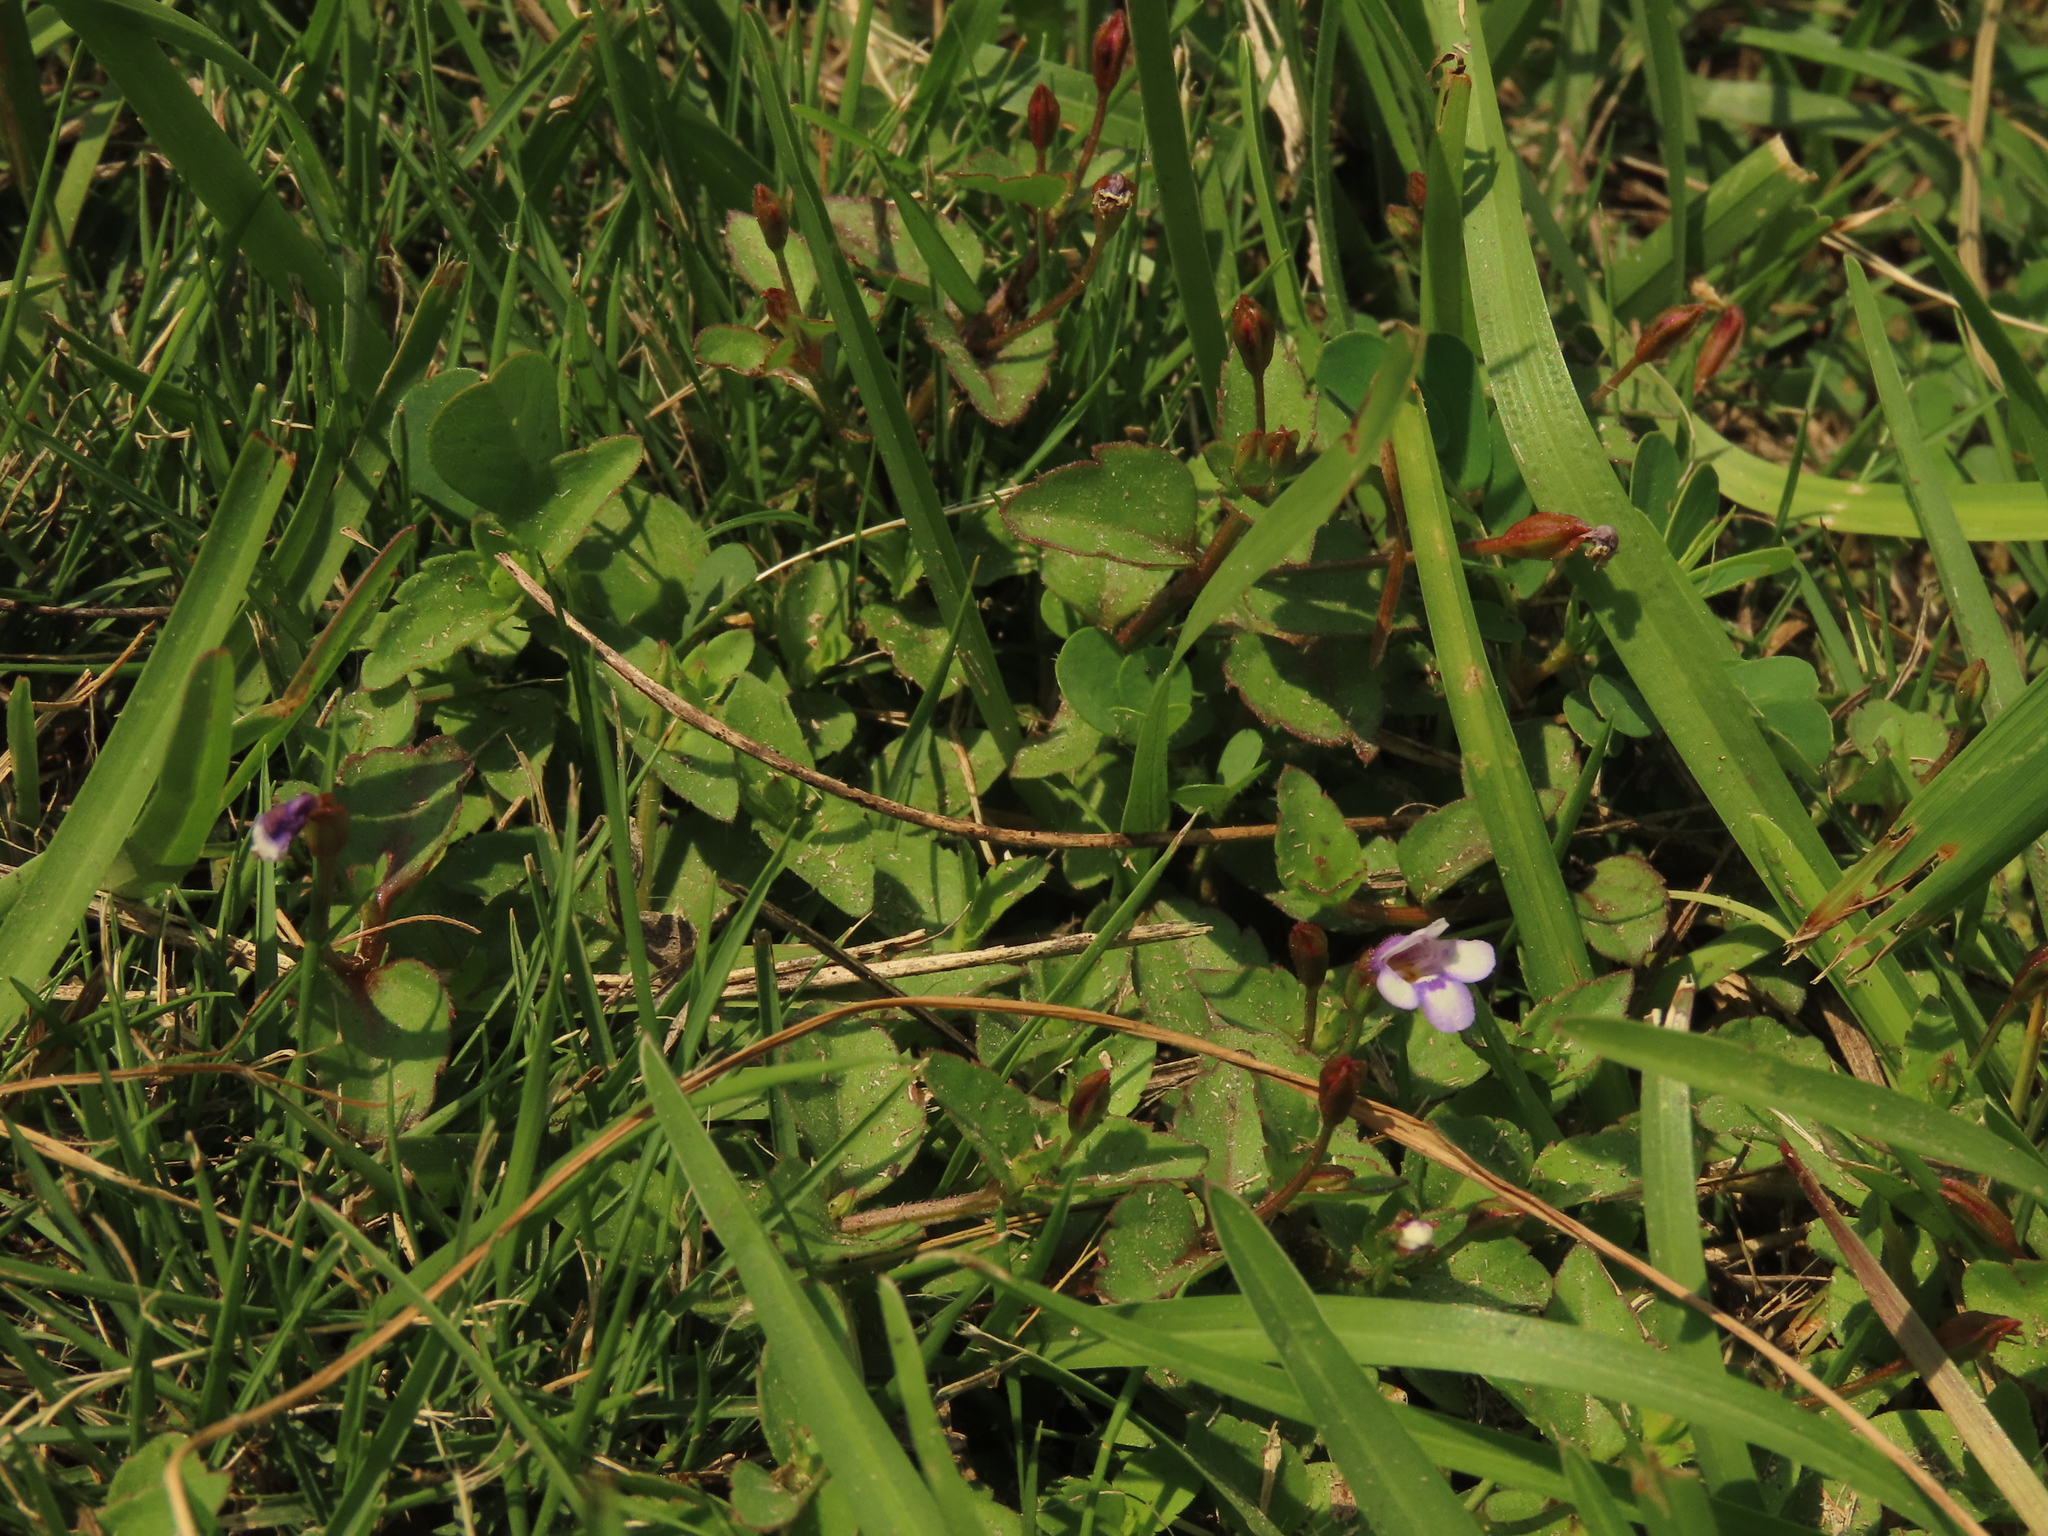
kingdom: Plantae
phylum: Tracheophyta
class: Magnoliopsida
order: Lamiales
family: Linderniaceae
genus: Torenia
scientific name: Torenia crustacea
